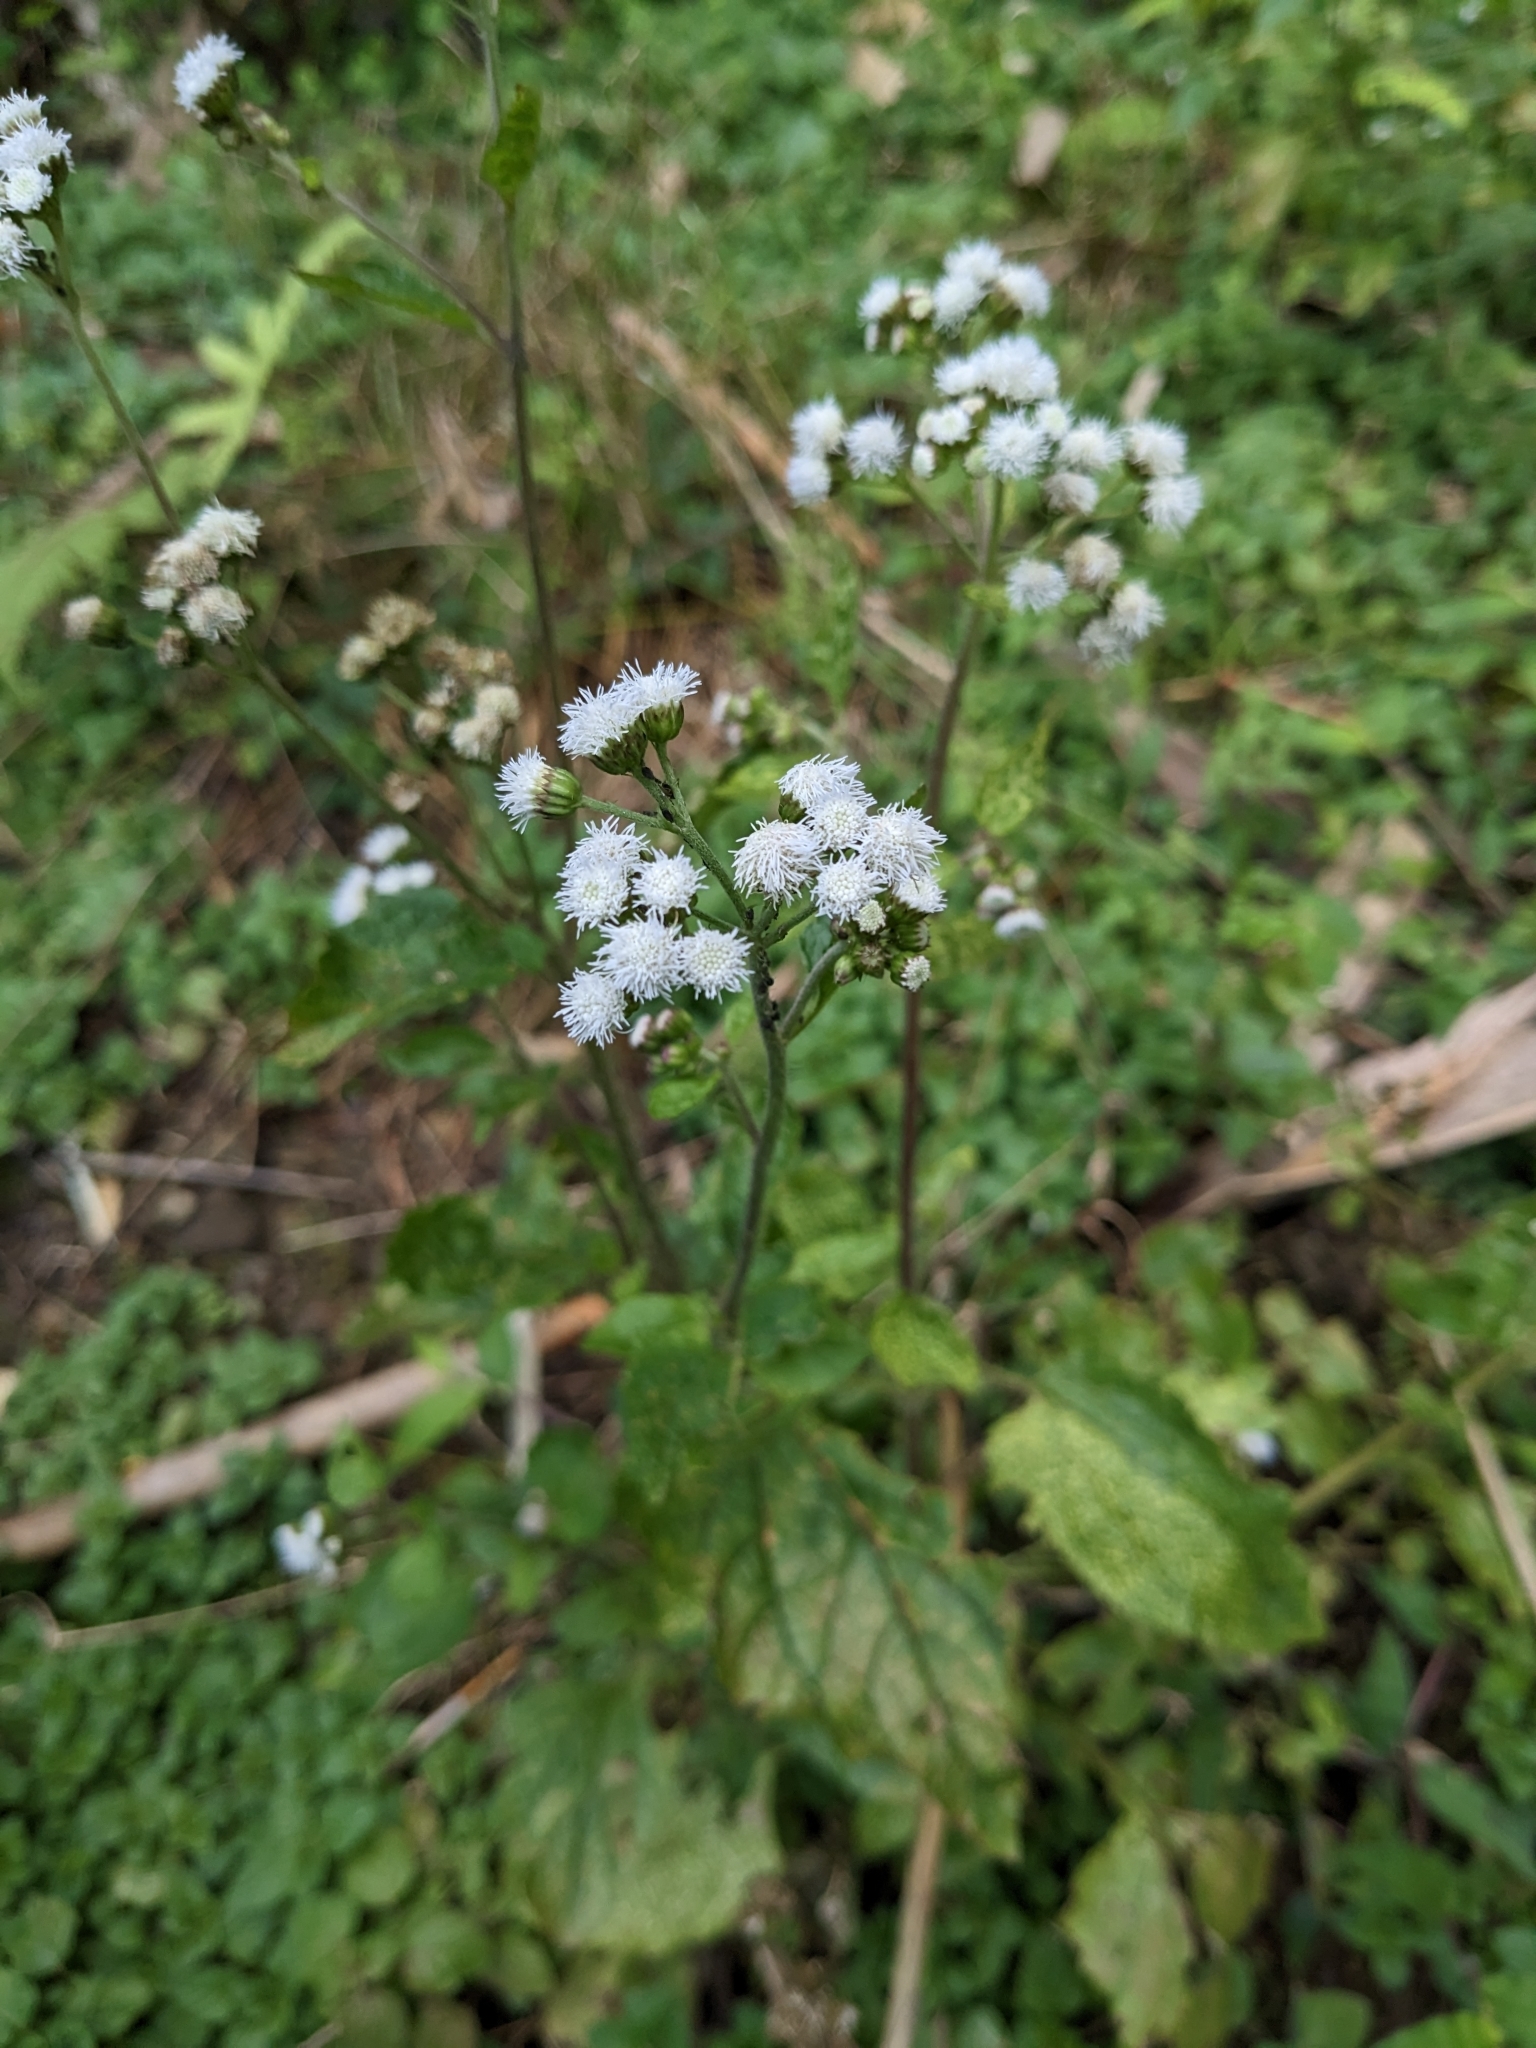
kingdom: Plantae
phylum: Tracheophyta
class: Magnoliopsida
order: Asterales
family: Asteraceae
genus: Ageratum
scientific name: Ageratum conyzoides
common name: Tropical whiteweed
